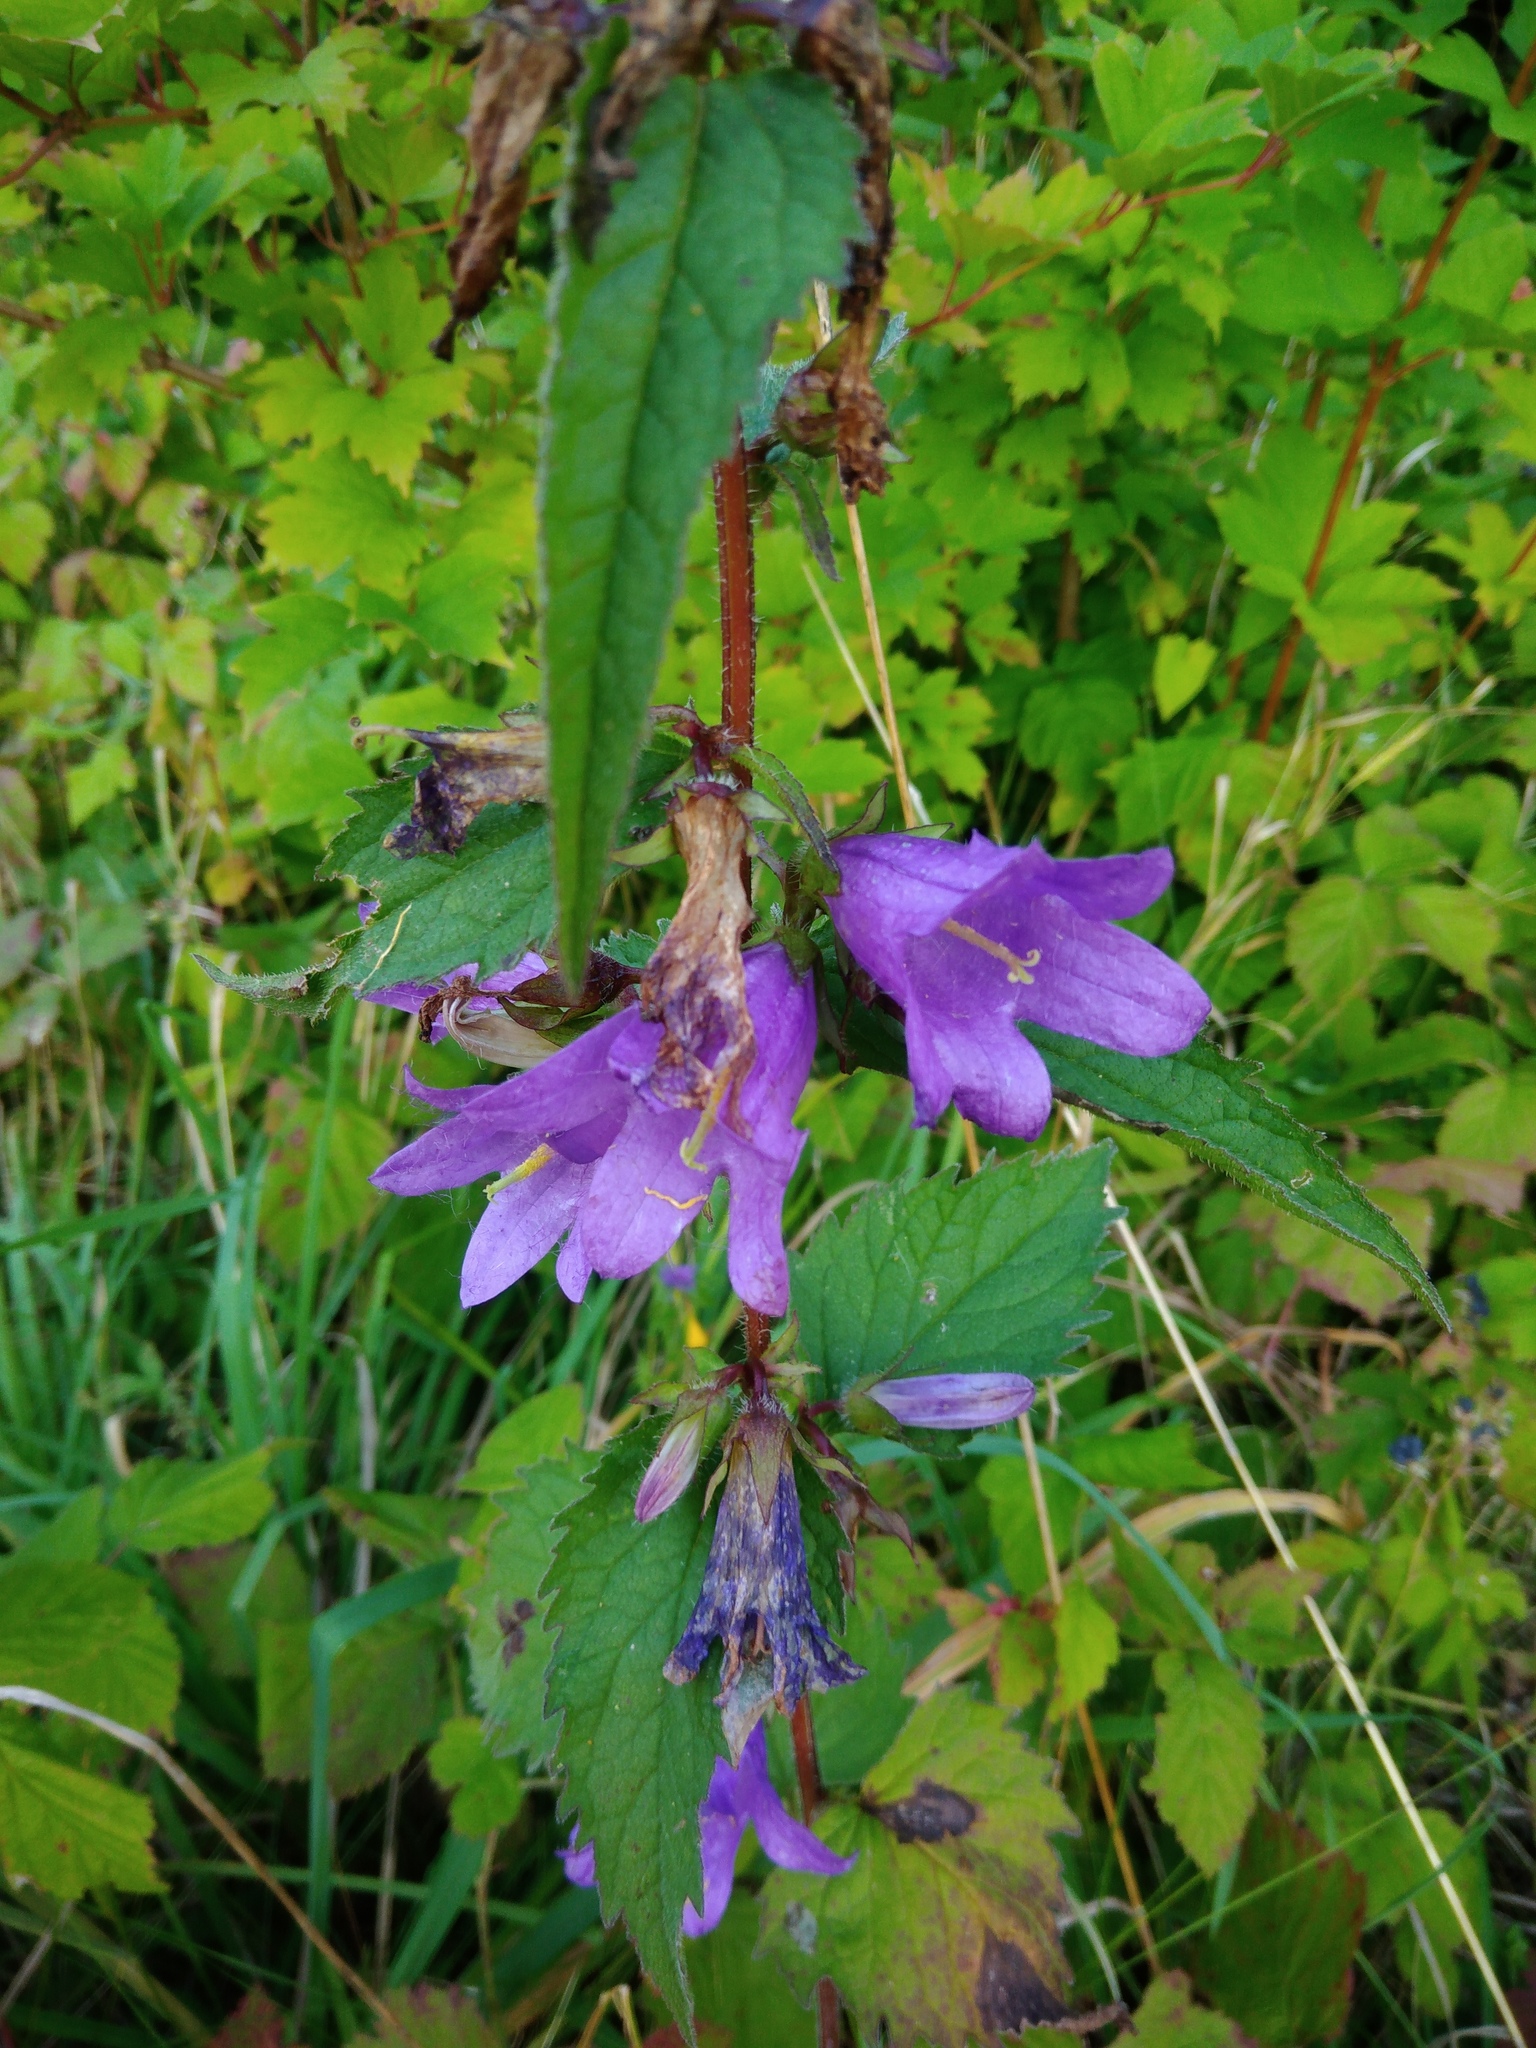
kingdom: Plantae
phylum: Tracheophyta
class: Magnoliopsida
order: Asterales
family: Campanulaceae
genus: Campanula
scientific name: Campanula trachelium
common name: Nettle-leaved bellflower
